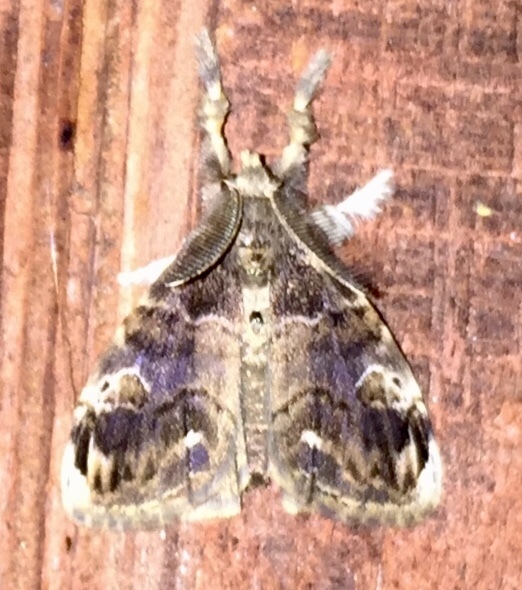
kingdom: Animalia
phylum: Arthropoda
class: Insecta
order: Lepidoptera
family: Erebidae
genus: Orgyia
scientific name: Orgyia definita
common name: Definite tussock moth
